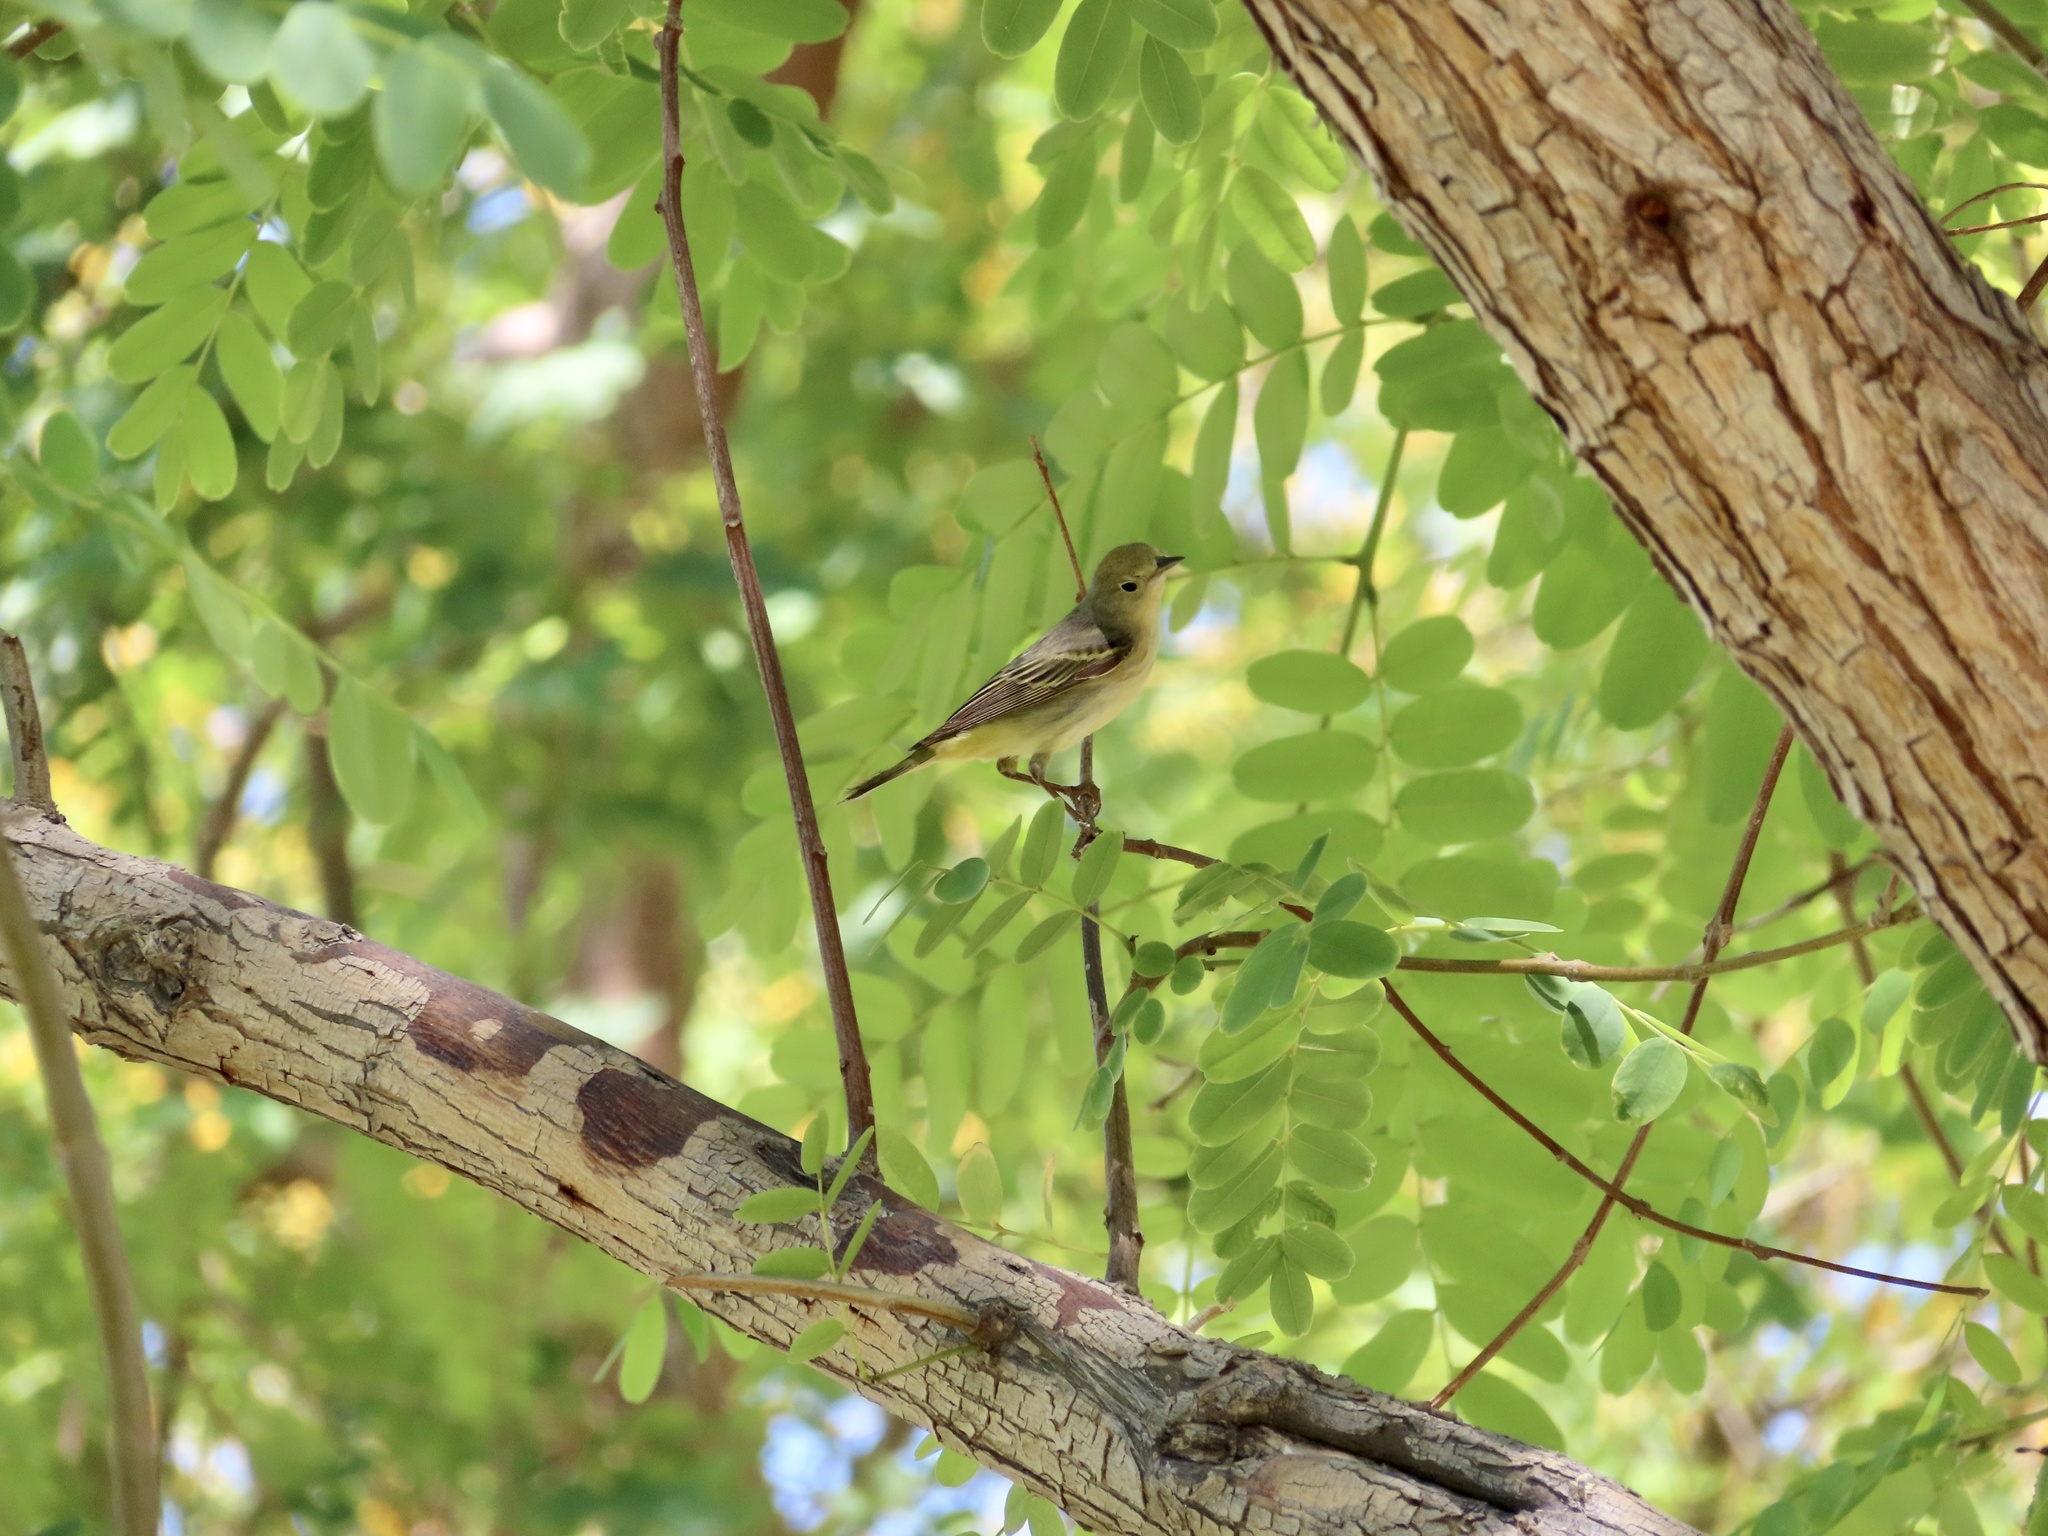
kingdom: Animalia
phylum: Chordata
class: Aves
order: Passeriformes
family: Parulidae
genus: Setophaga
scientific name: Setophaga petechia
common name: Yellow warbler
